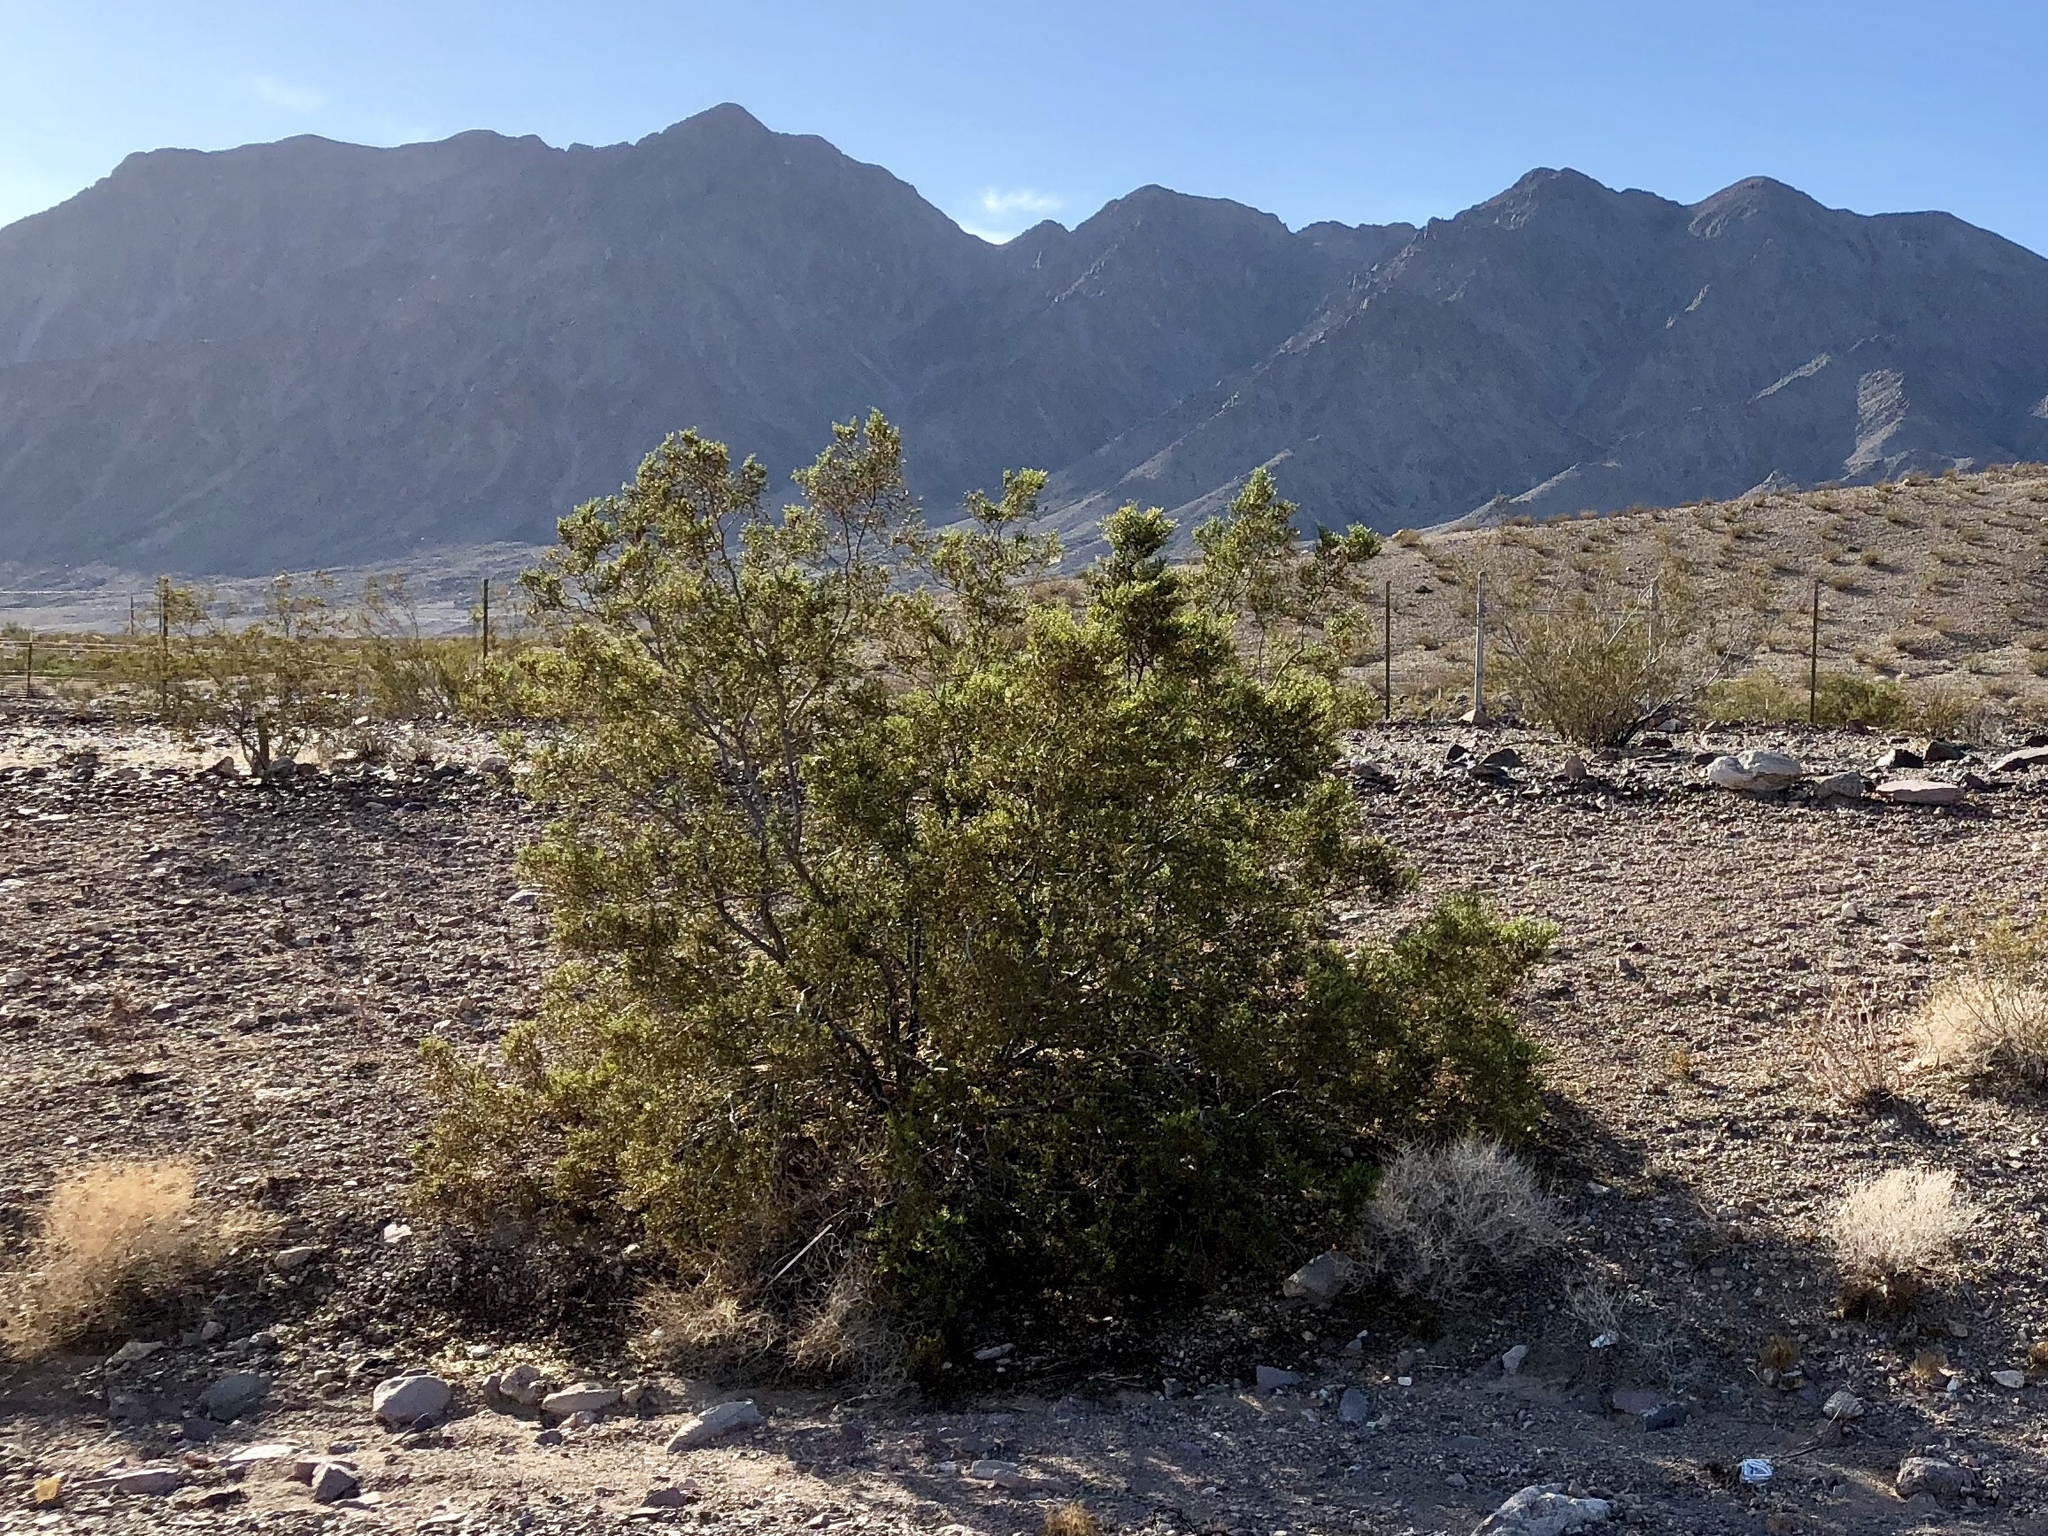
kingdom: Plantae
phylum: Tracheophyta
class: Magnoliopsida
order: Zygophyllales
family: Zygophyllaceae
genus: Larrea
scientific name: Larrea tridentata
